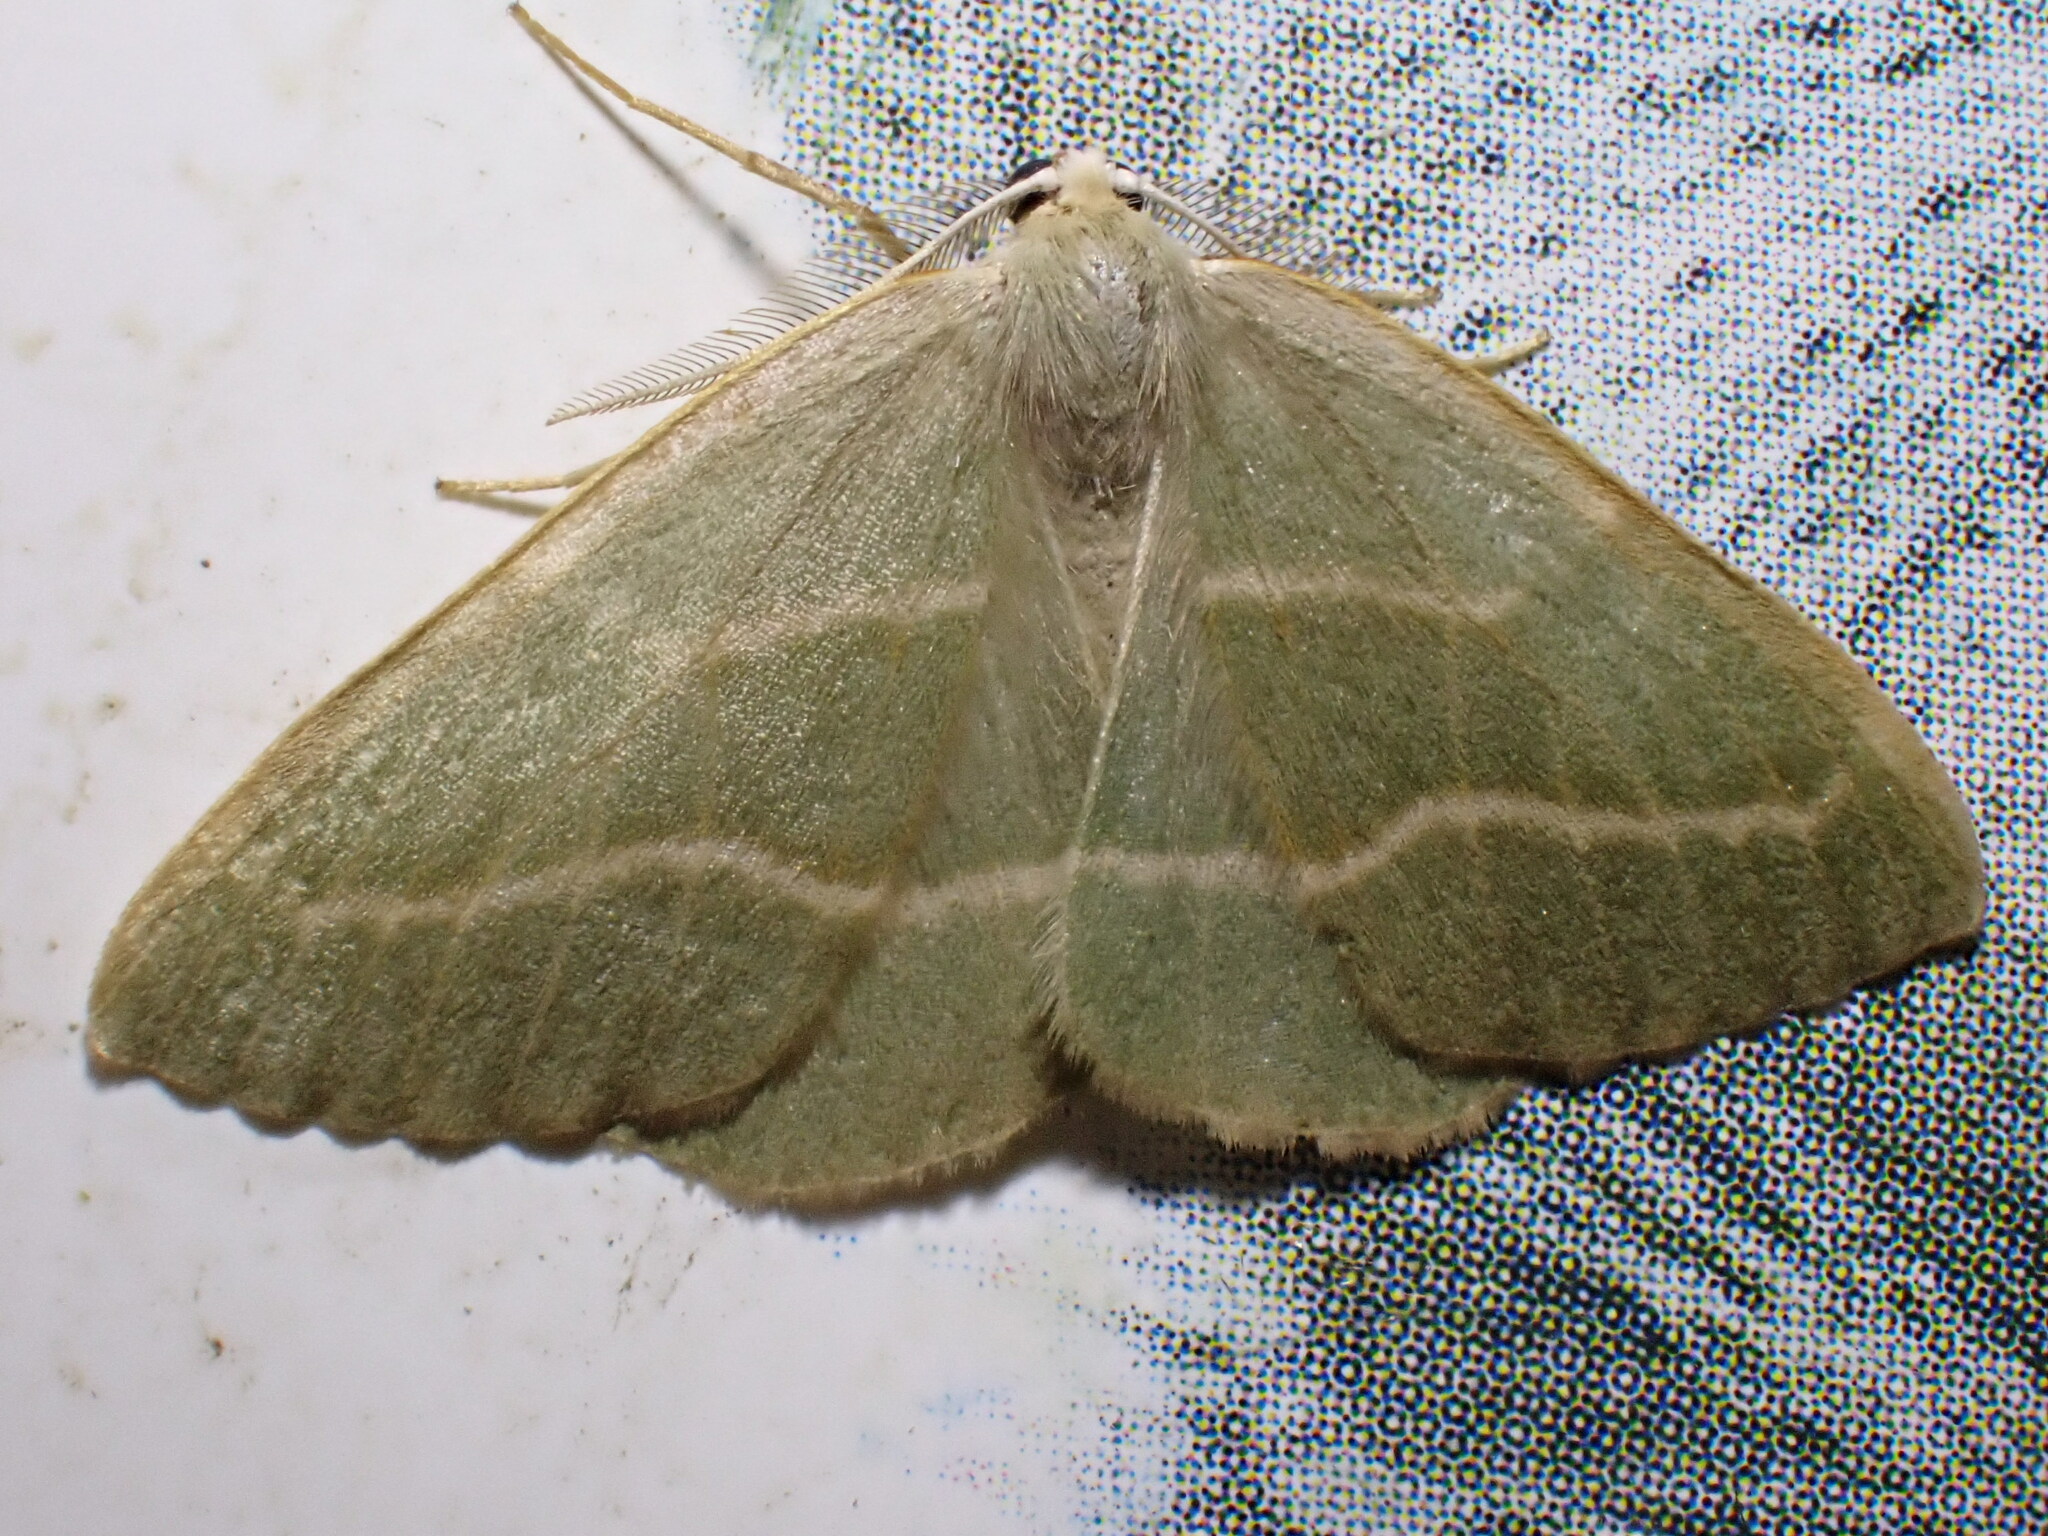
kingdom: Animalia
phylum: Arthropoda
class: Insecta
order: Lepidoptera
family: Geometridae
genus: Hylaea
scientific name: Hylaea fasciaria
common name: Barred red
